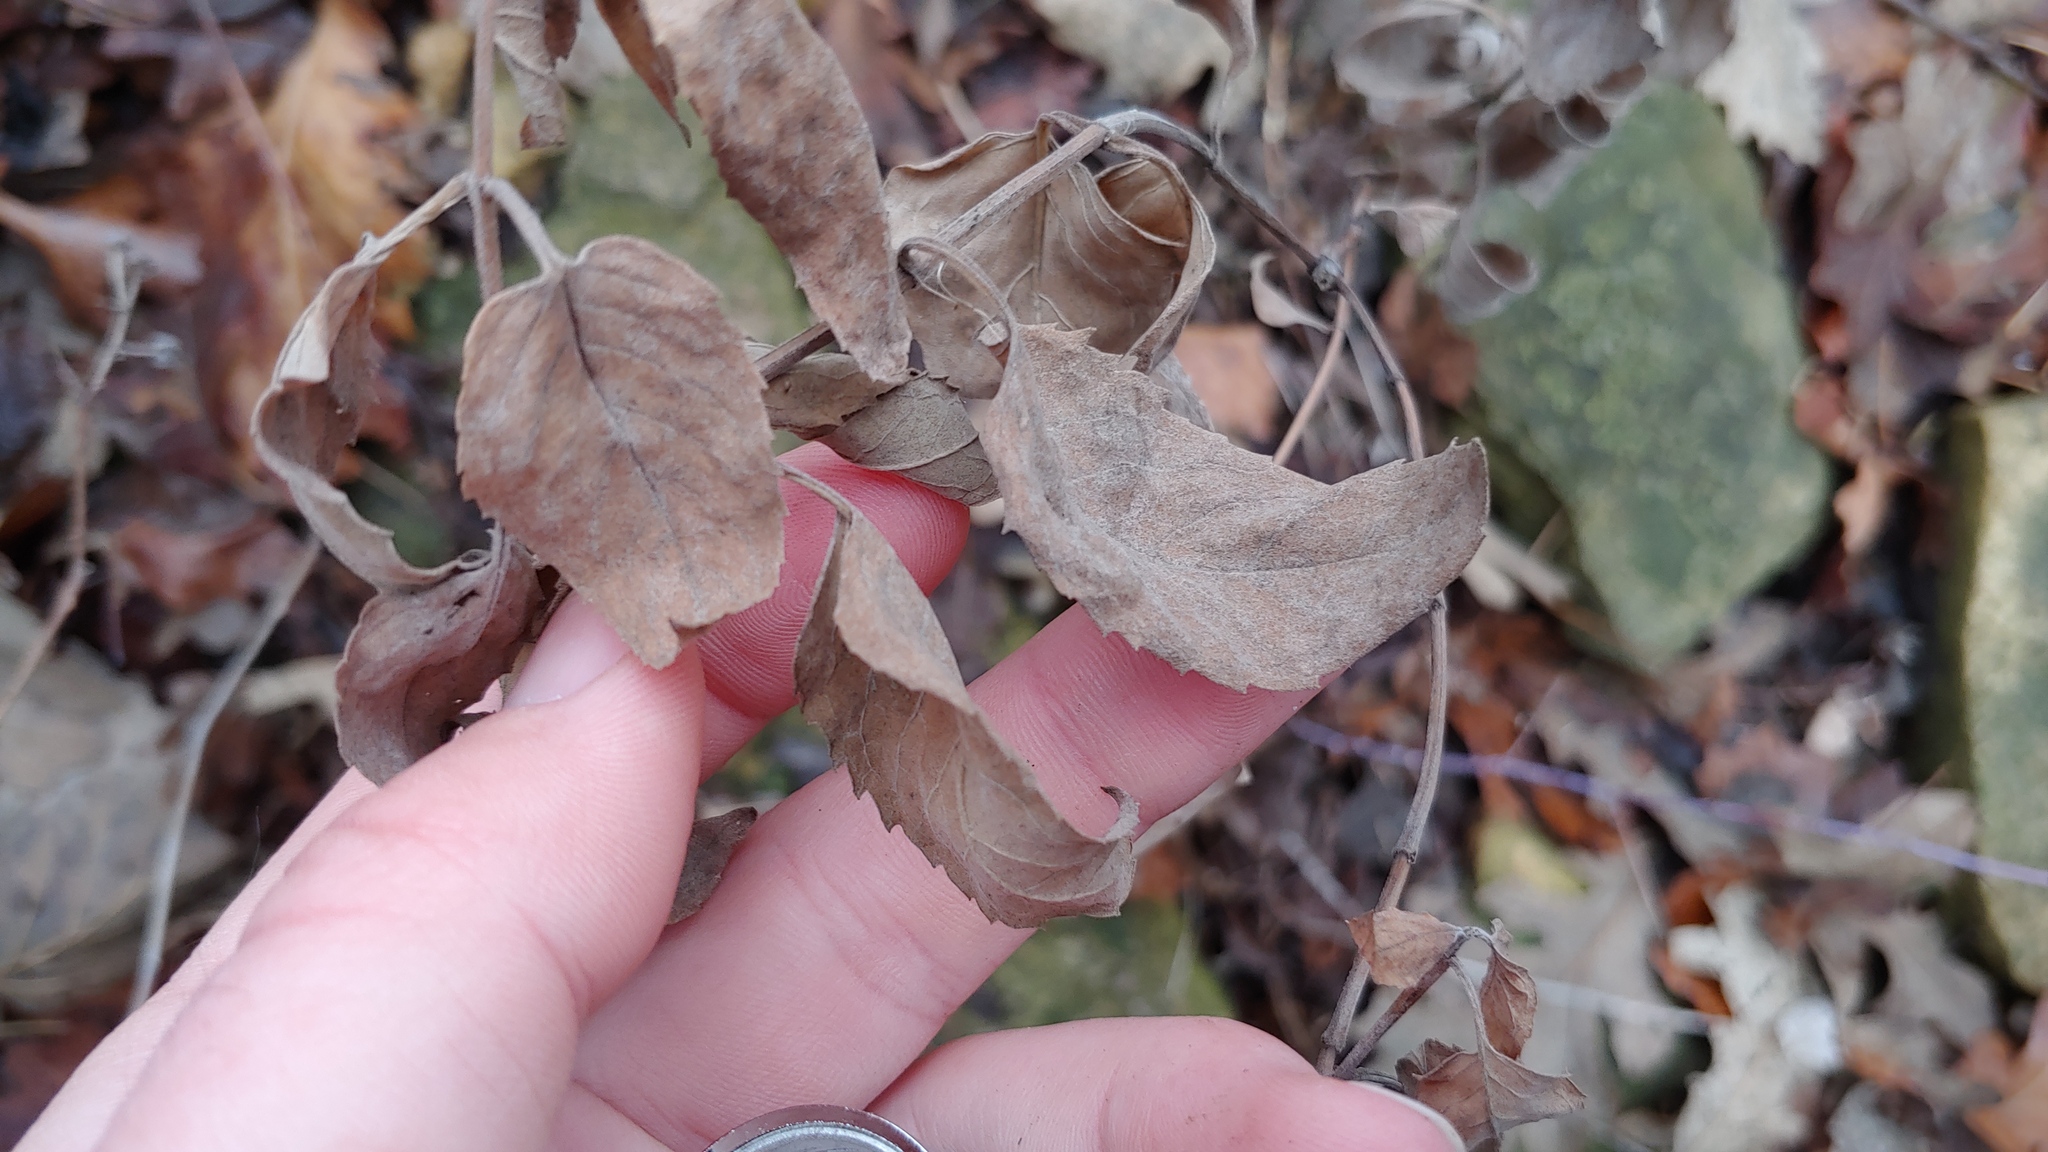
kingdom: Plantae
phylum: Tracheophyta
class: Magnoliopsida
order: Lamiales
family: Lamiaceae
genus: Monarda
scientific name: Monarda fistulosa
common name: Purple beebalm
